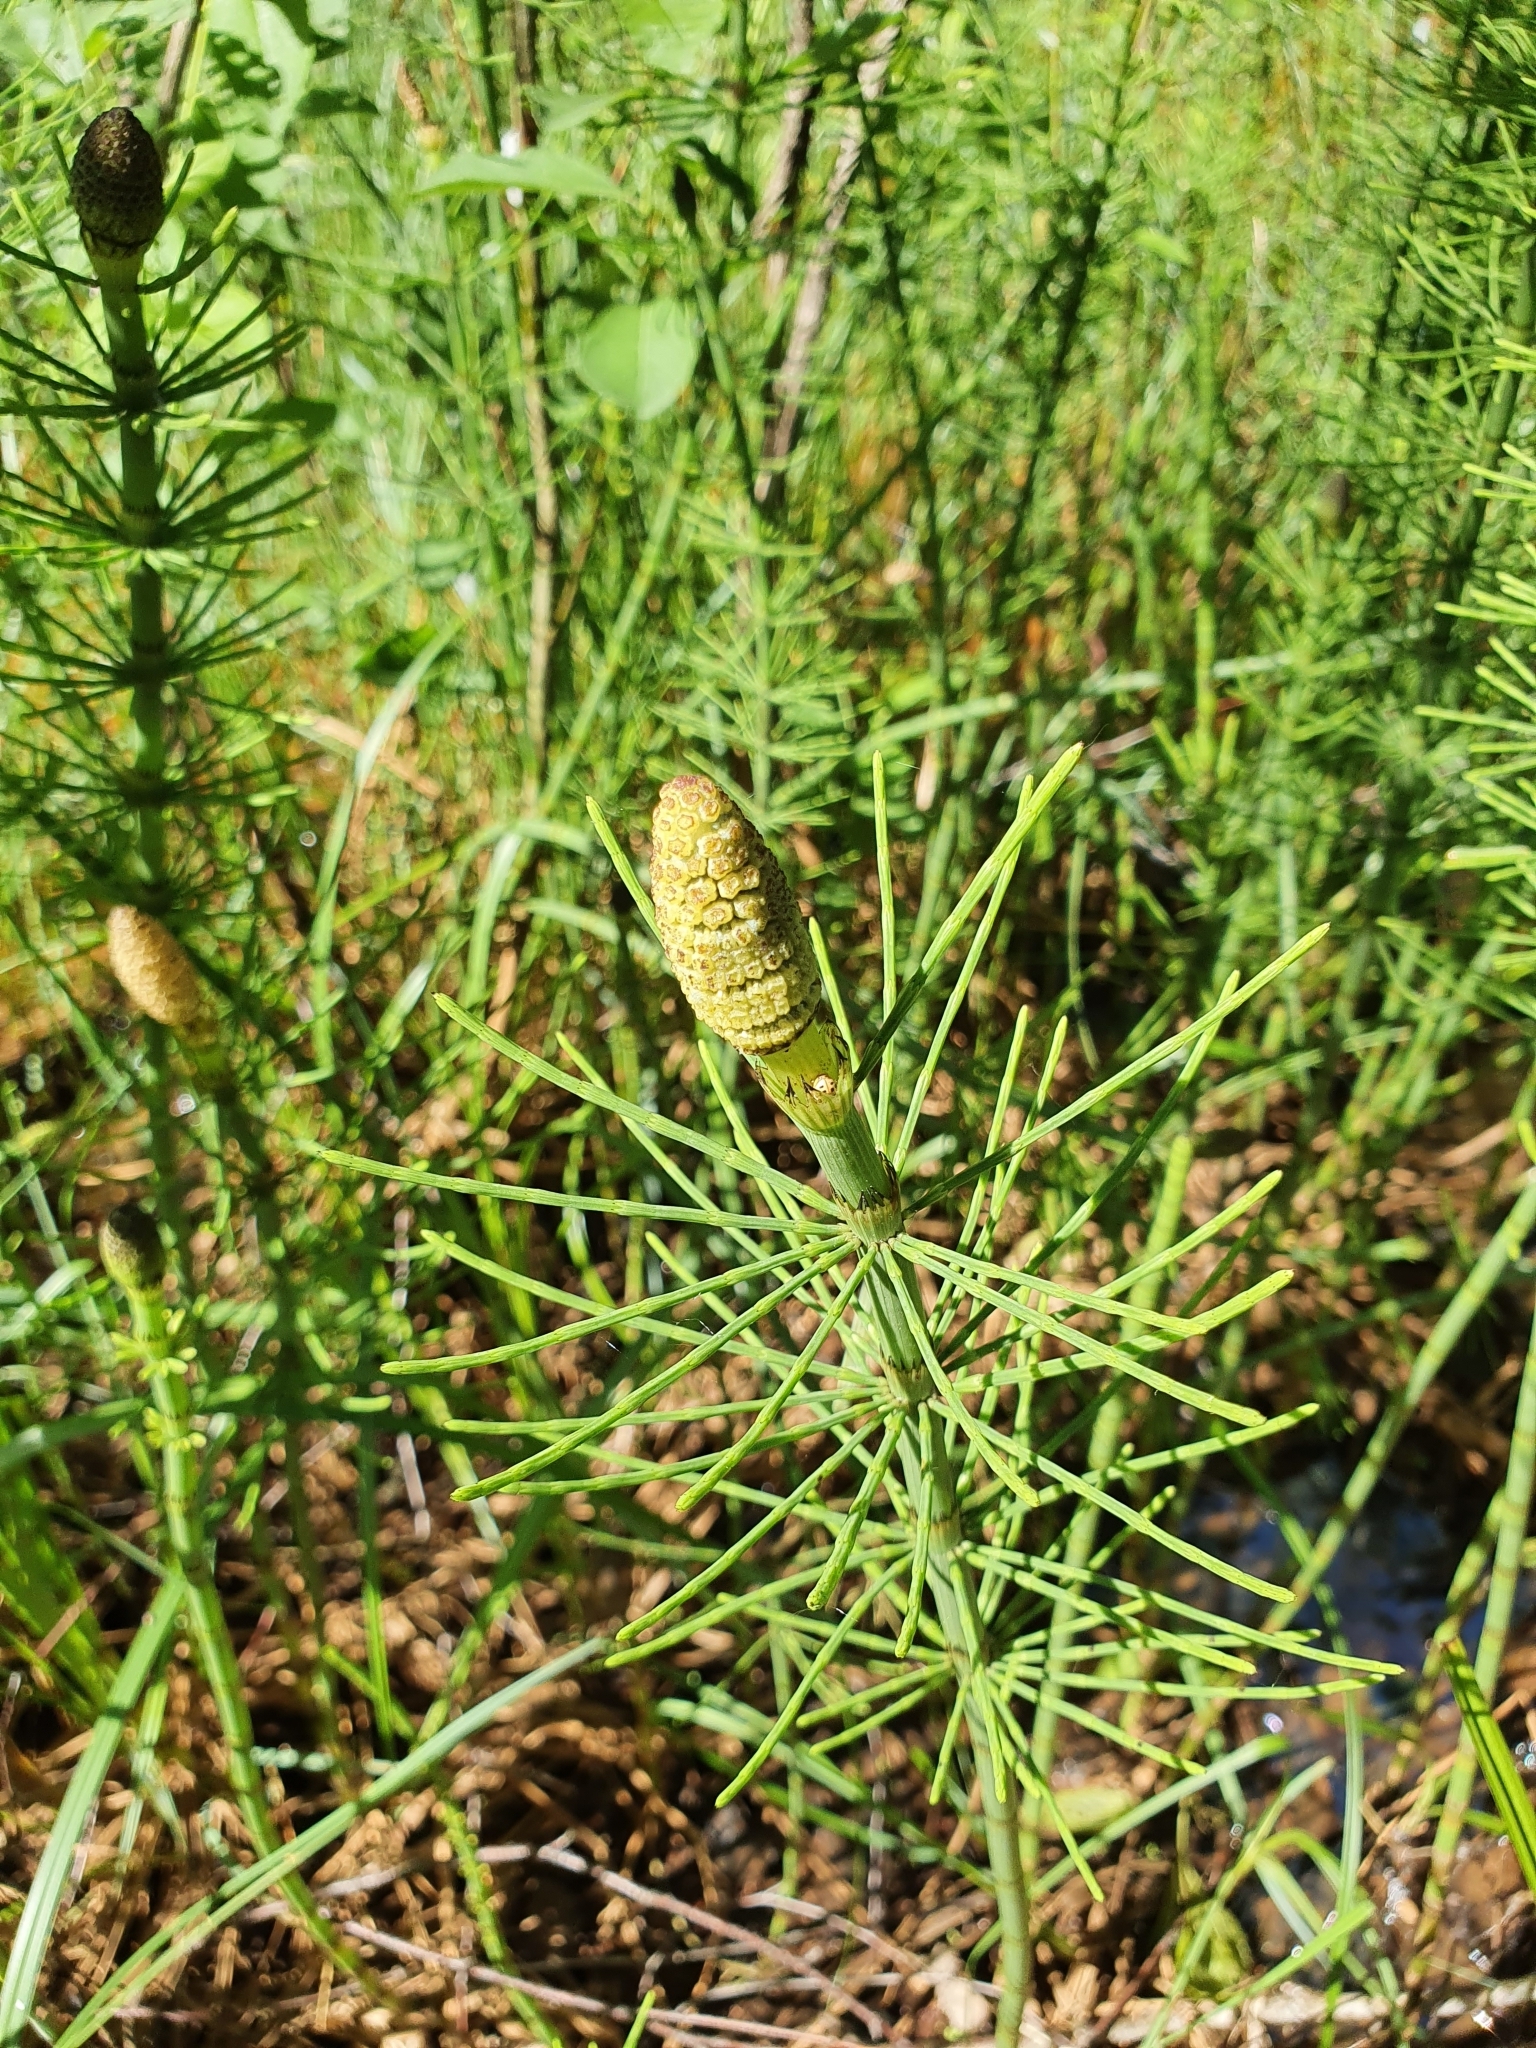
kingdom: Plantae
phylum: Tracheophyta
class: Polypodiopsida
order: Equisetales
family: Equisetaceae
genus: Equisetum
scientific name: Equisetum fluviatile
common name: Water horsetail
